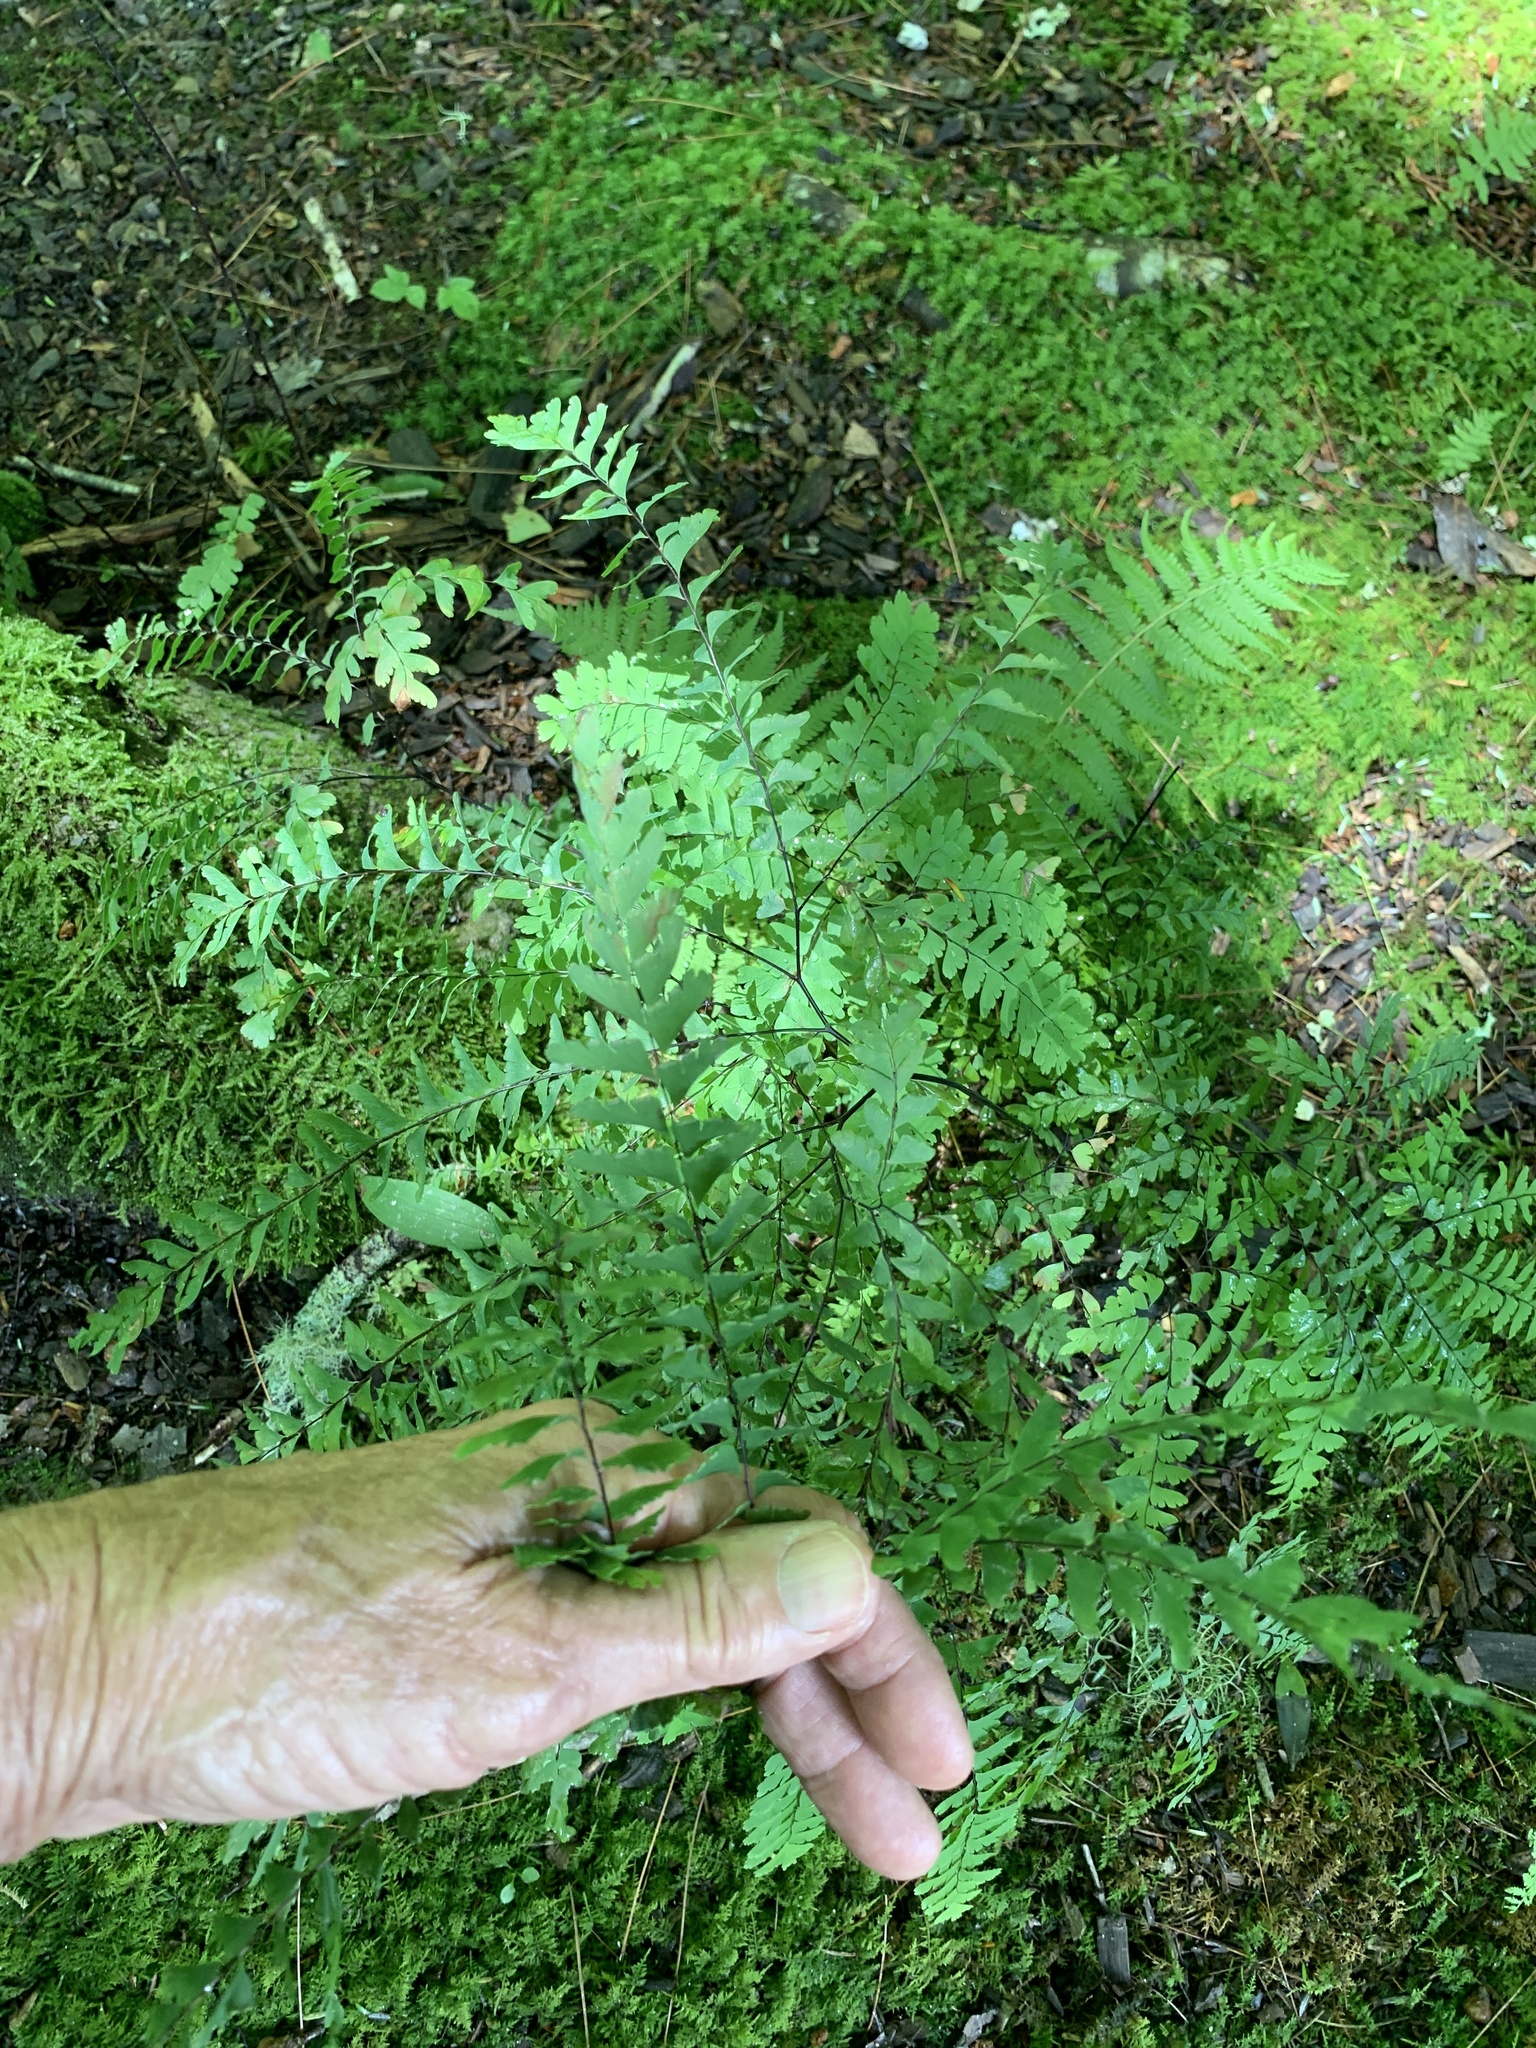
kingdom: Plantae
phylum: Tracheophyta
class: Polypodiopsida
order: Polypodiales
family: Pteridaceae
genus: Adiantum
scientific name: Adiantum pedatum
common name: Five-finger fern
